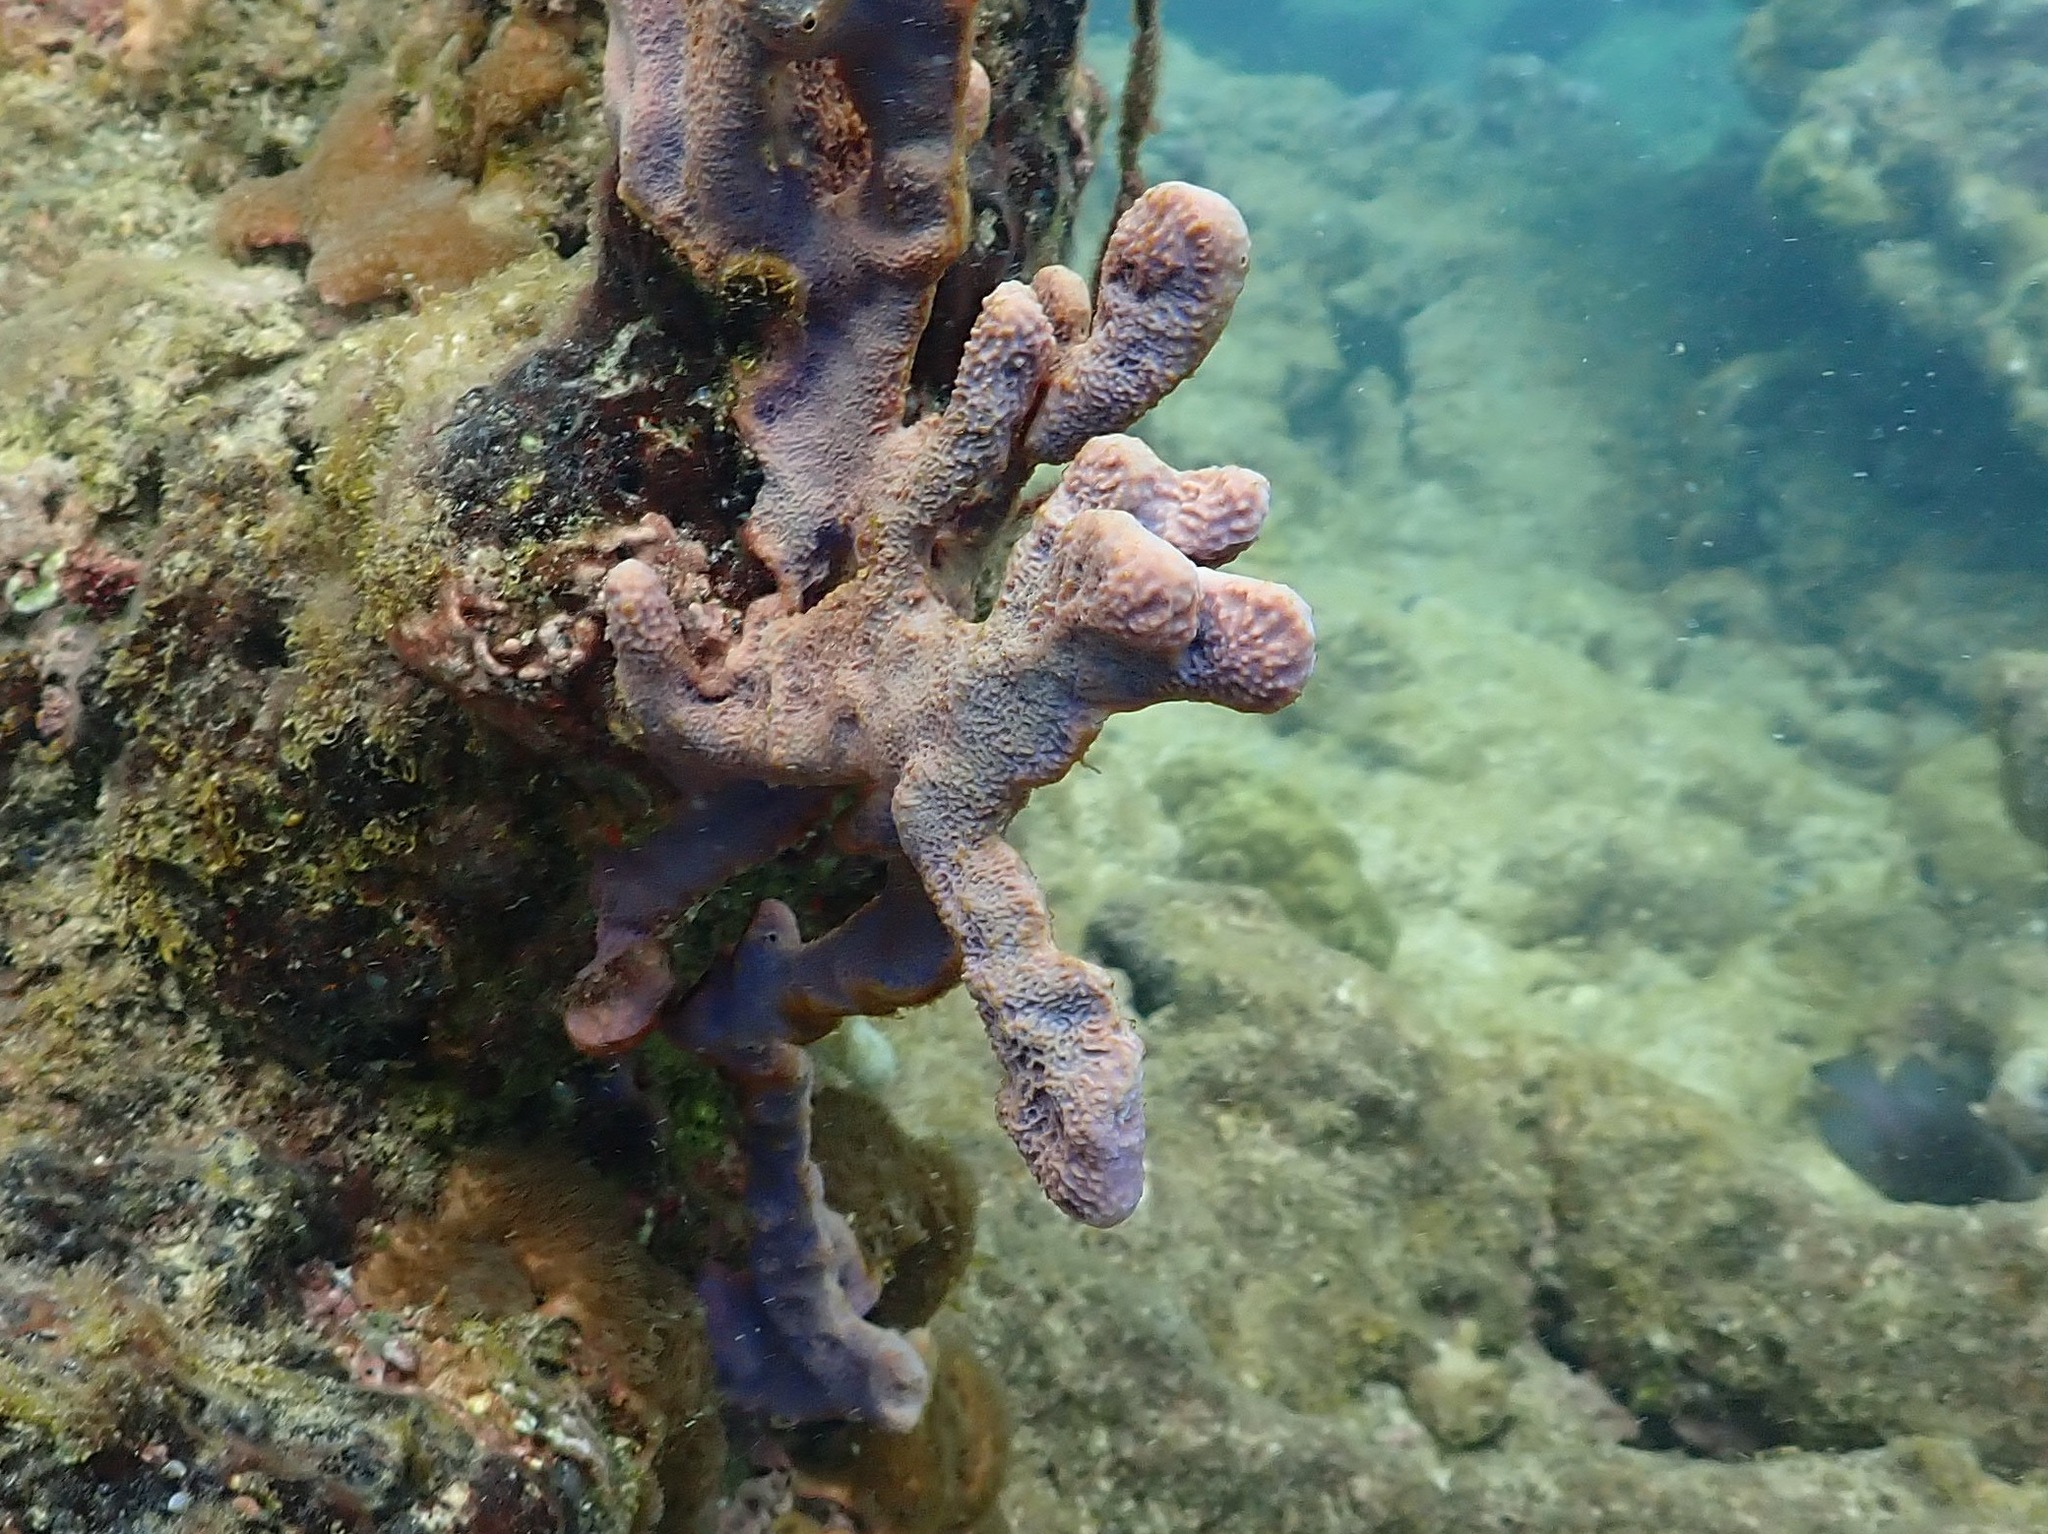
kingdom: Animalia
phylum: Porifera
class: Demospongiae
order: Verongiida
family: Aplysinidae
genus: Aplysina
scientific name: Aplysina cauliformis
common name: Branching candle sponge
